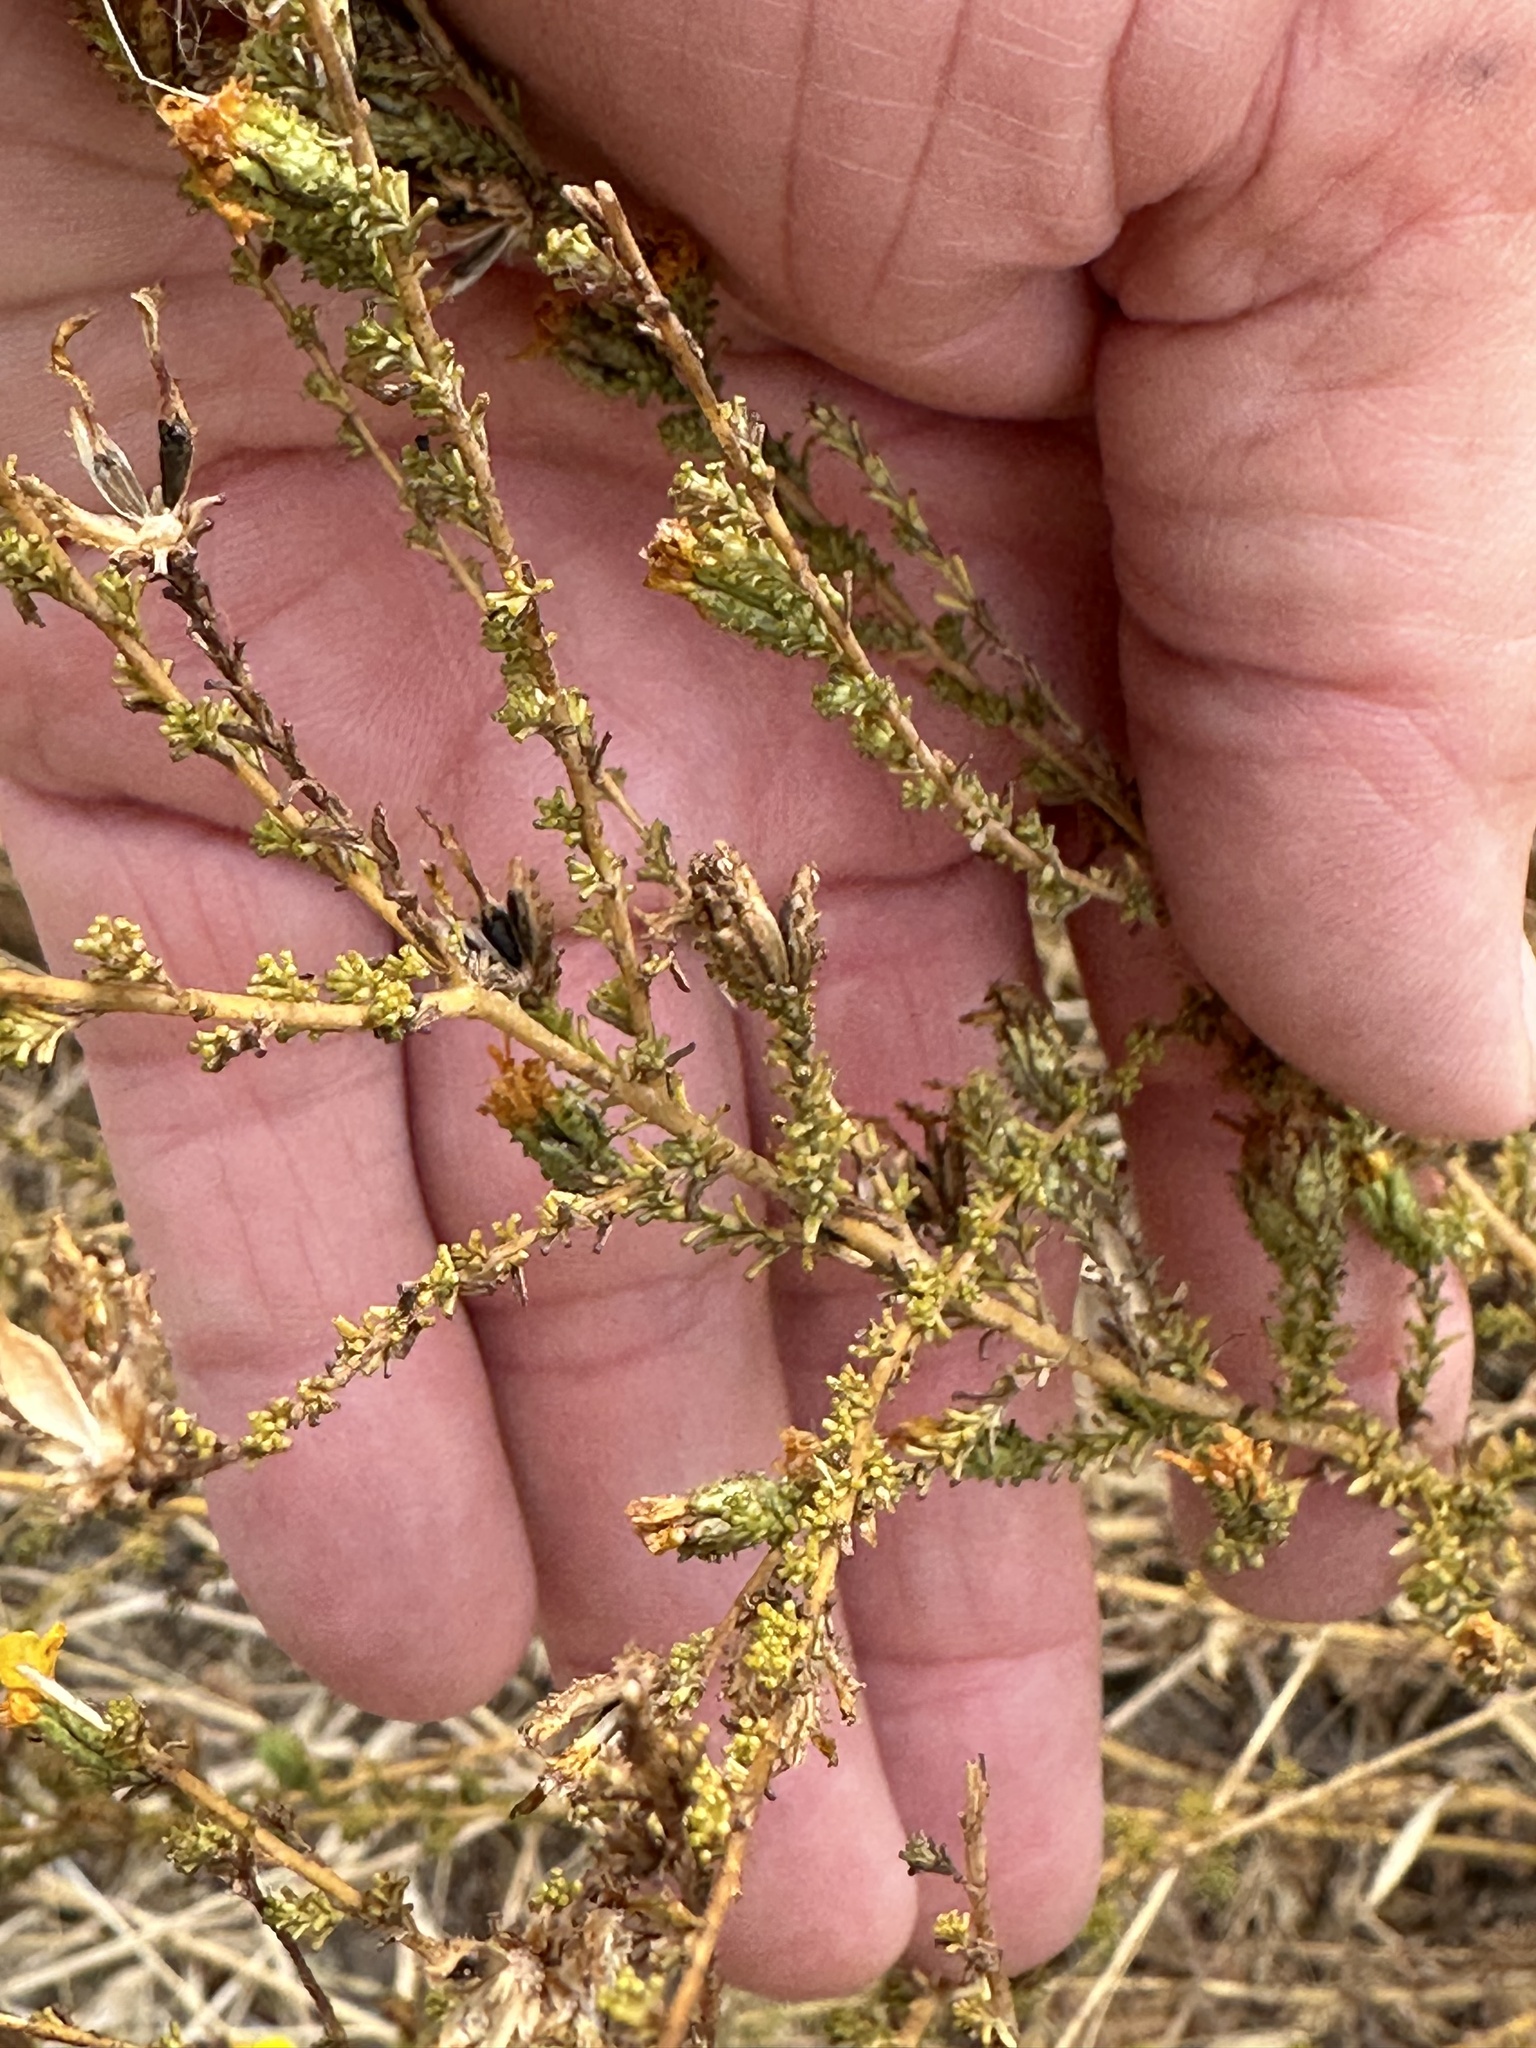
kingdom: Plantae
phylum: Tracheophyta
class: Magnoliopsida
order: Asterales
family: Asteraceae
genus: Holocarpha
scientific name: Holocarpha virgata
